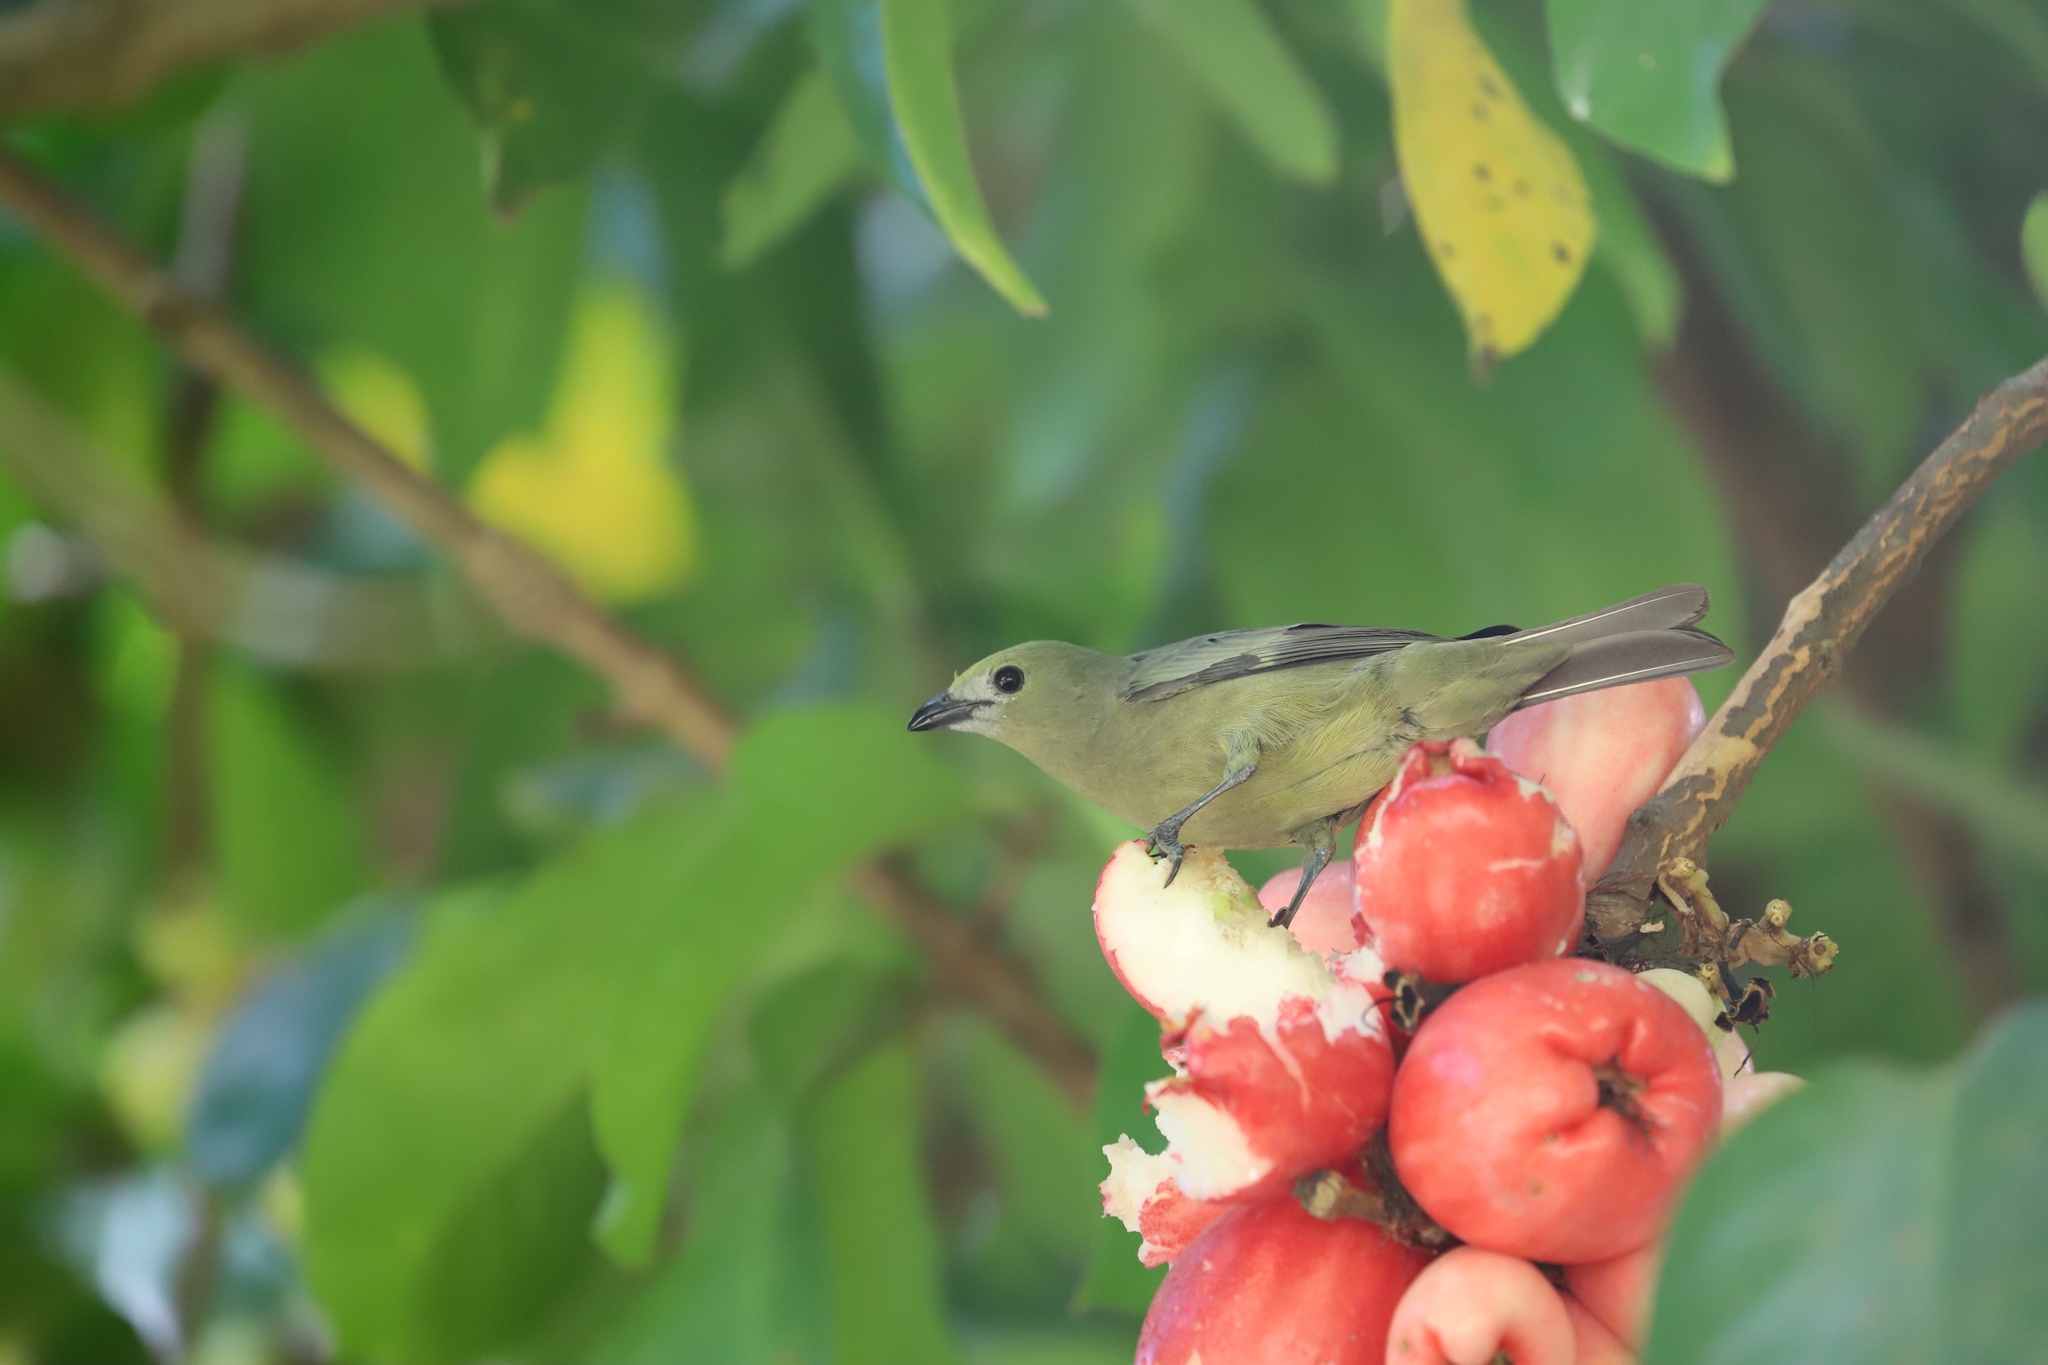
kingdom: Animalia
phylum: Chordata
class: Aves
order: Passeriformes
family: Thraupidae
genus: Thraupis
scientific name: Thraupis palmarum
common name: Palm tanager
